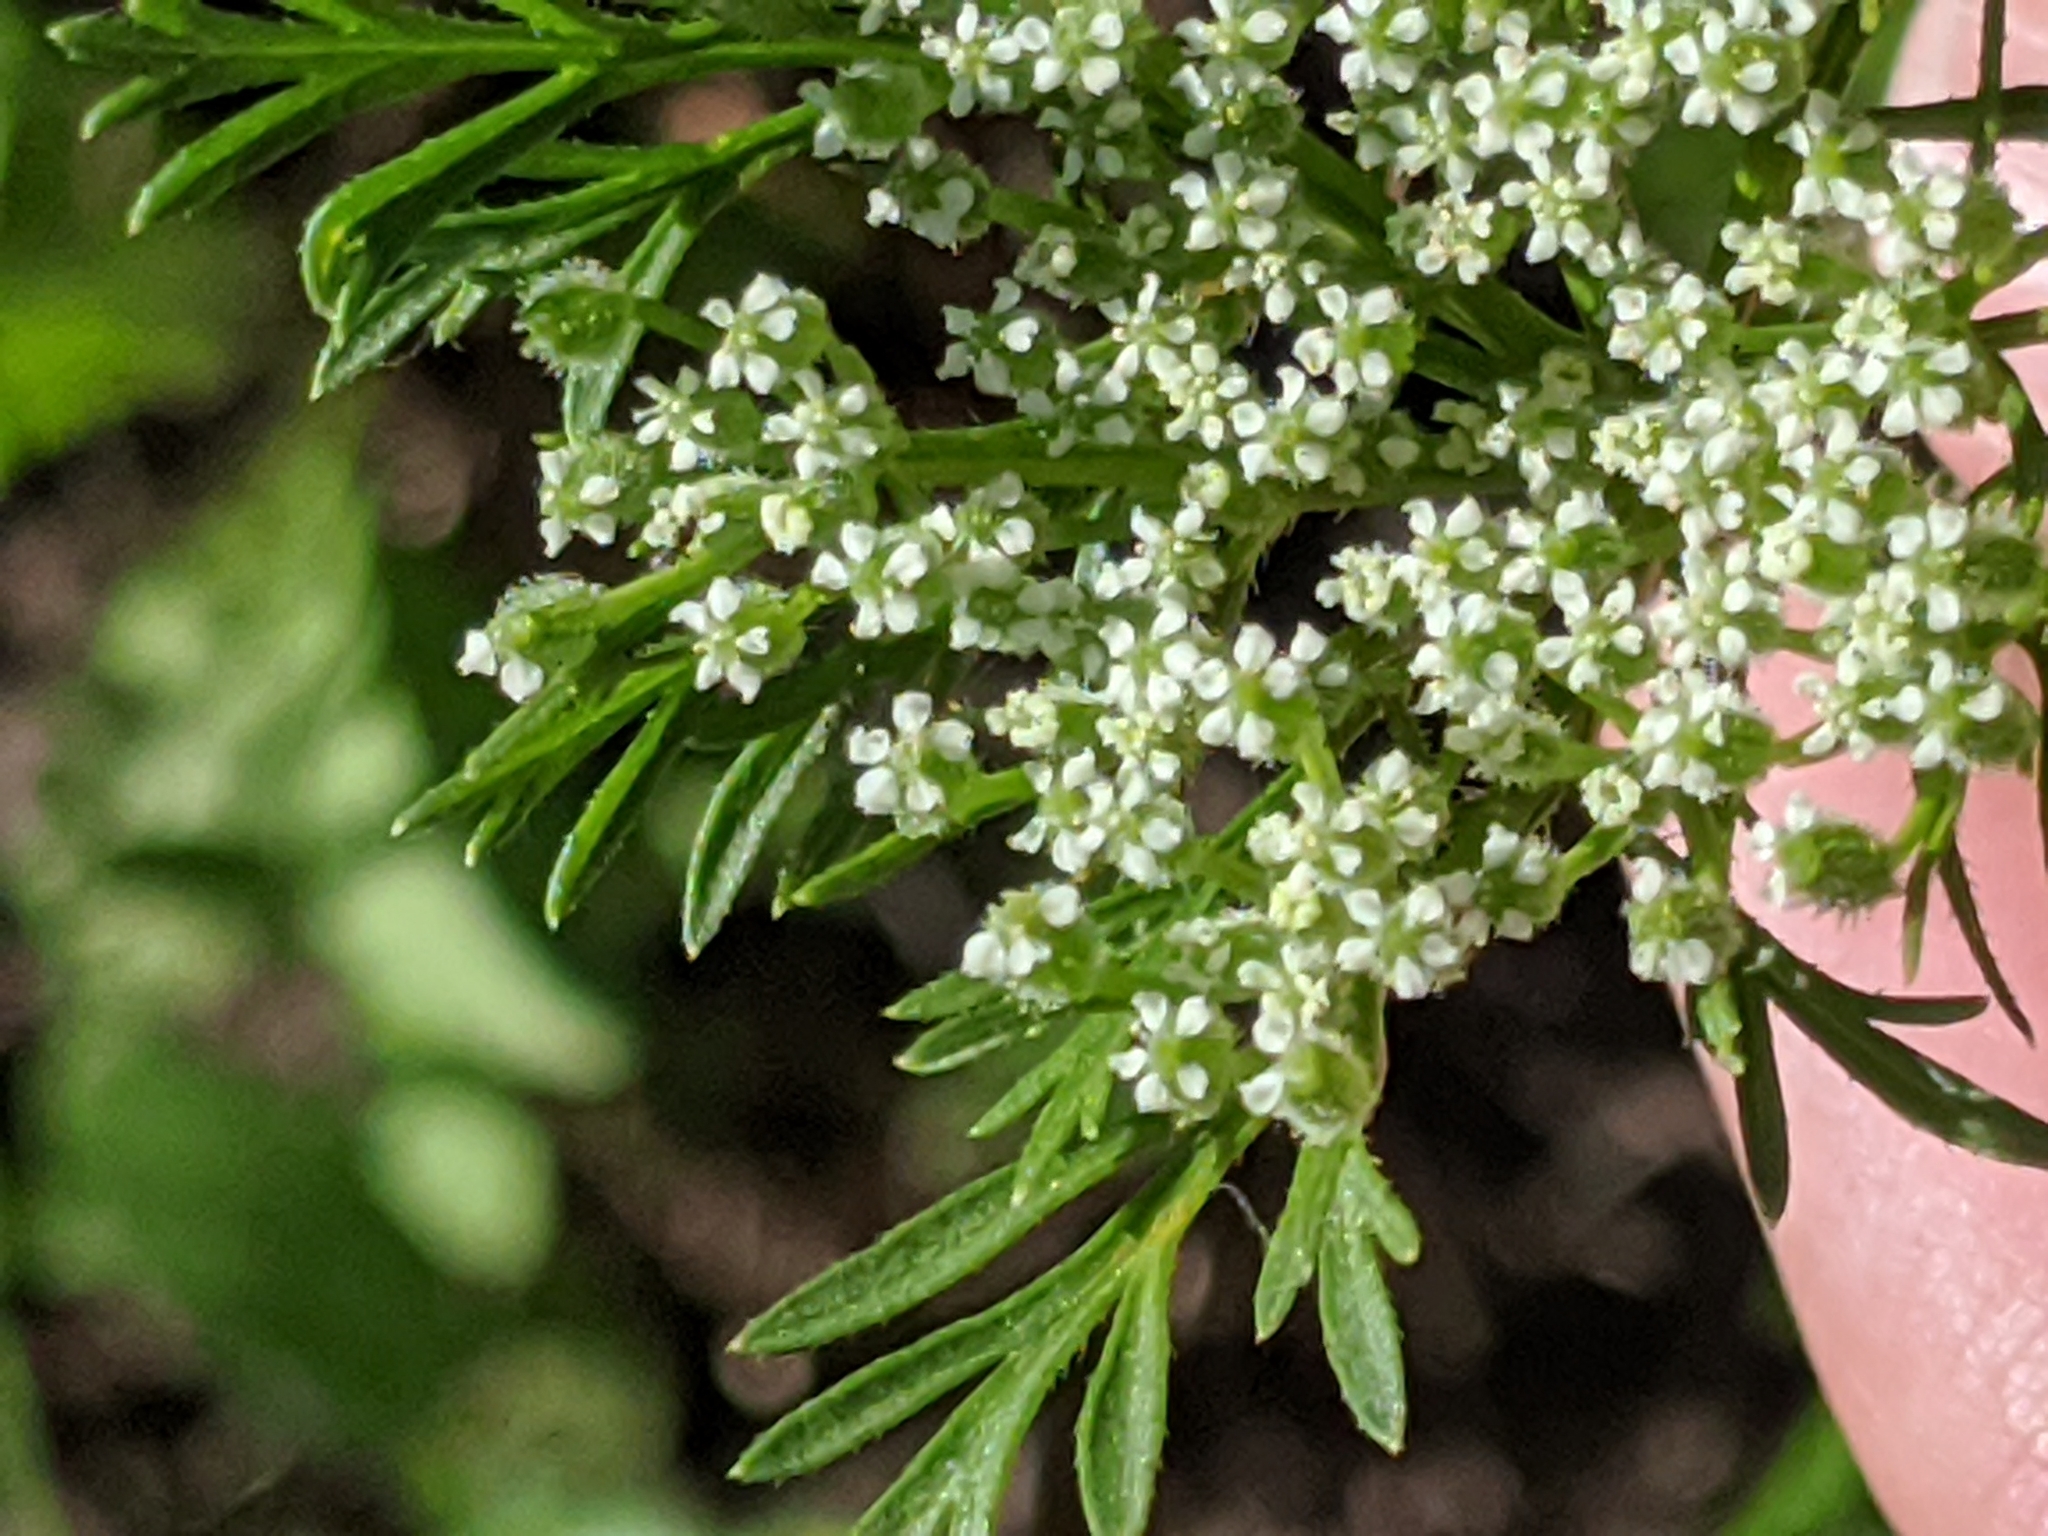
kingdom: Plantae
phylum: Tracheophyta
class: Magnoliopsida
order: Apiales
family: Apiaceae
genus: Daucus
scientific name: Daucus pusillus
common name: Southwest wild carrot
